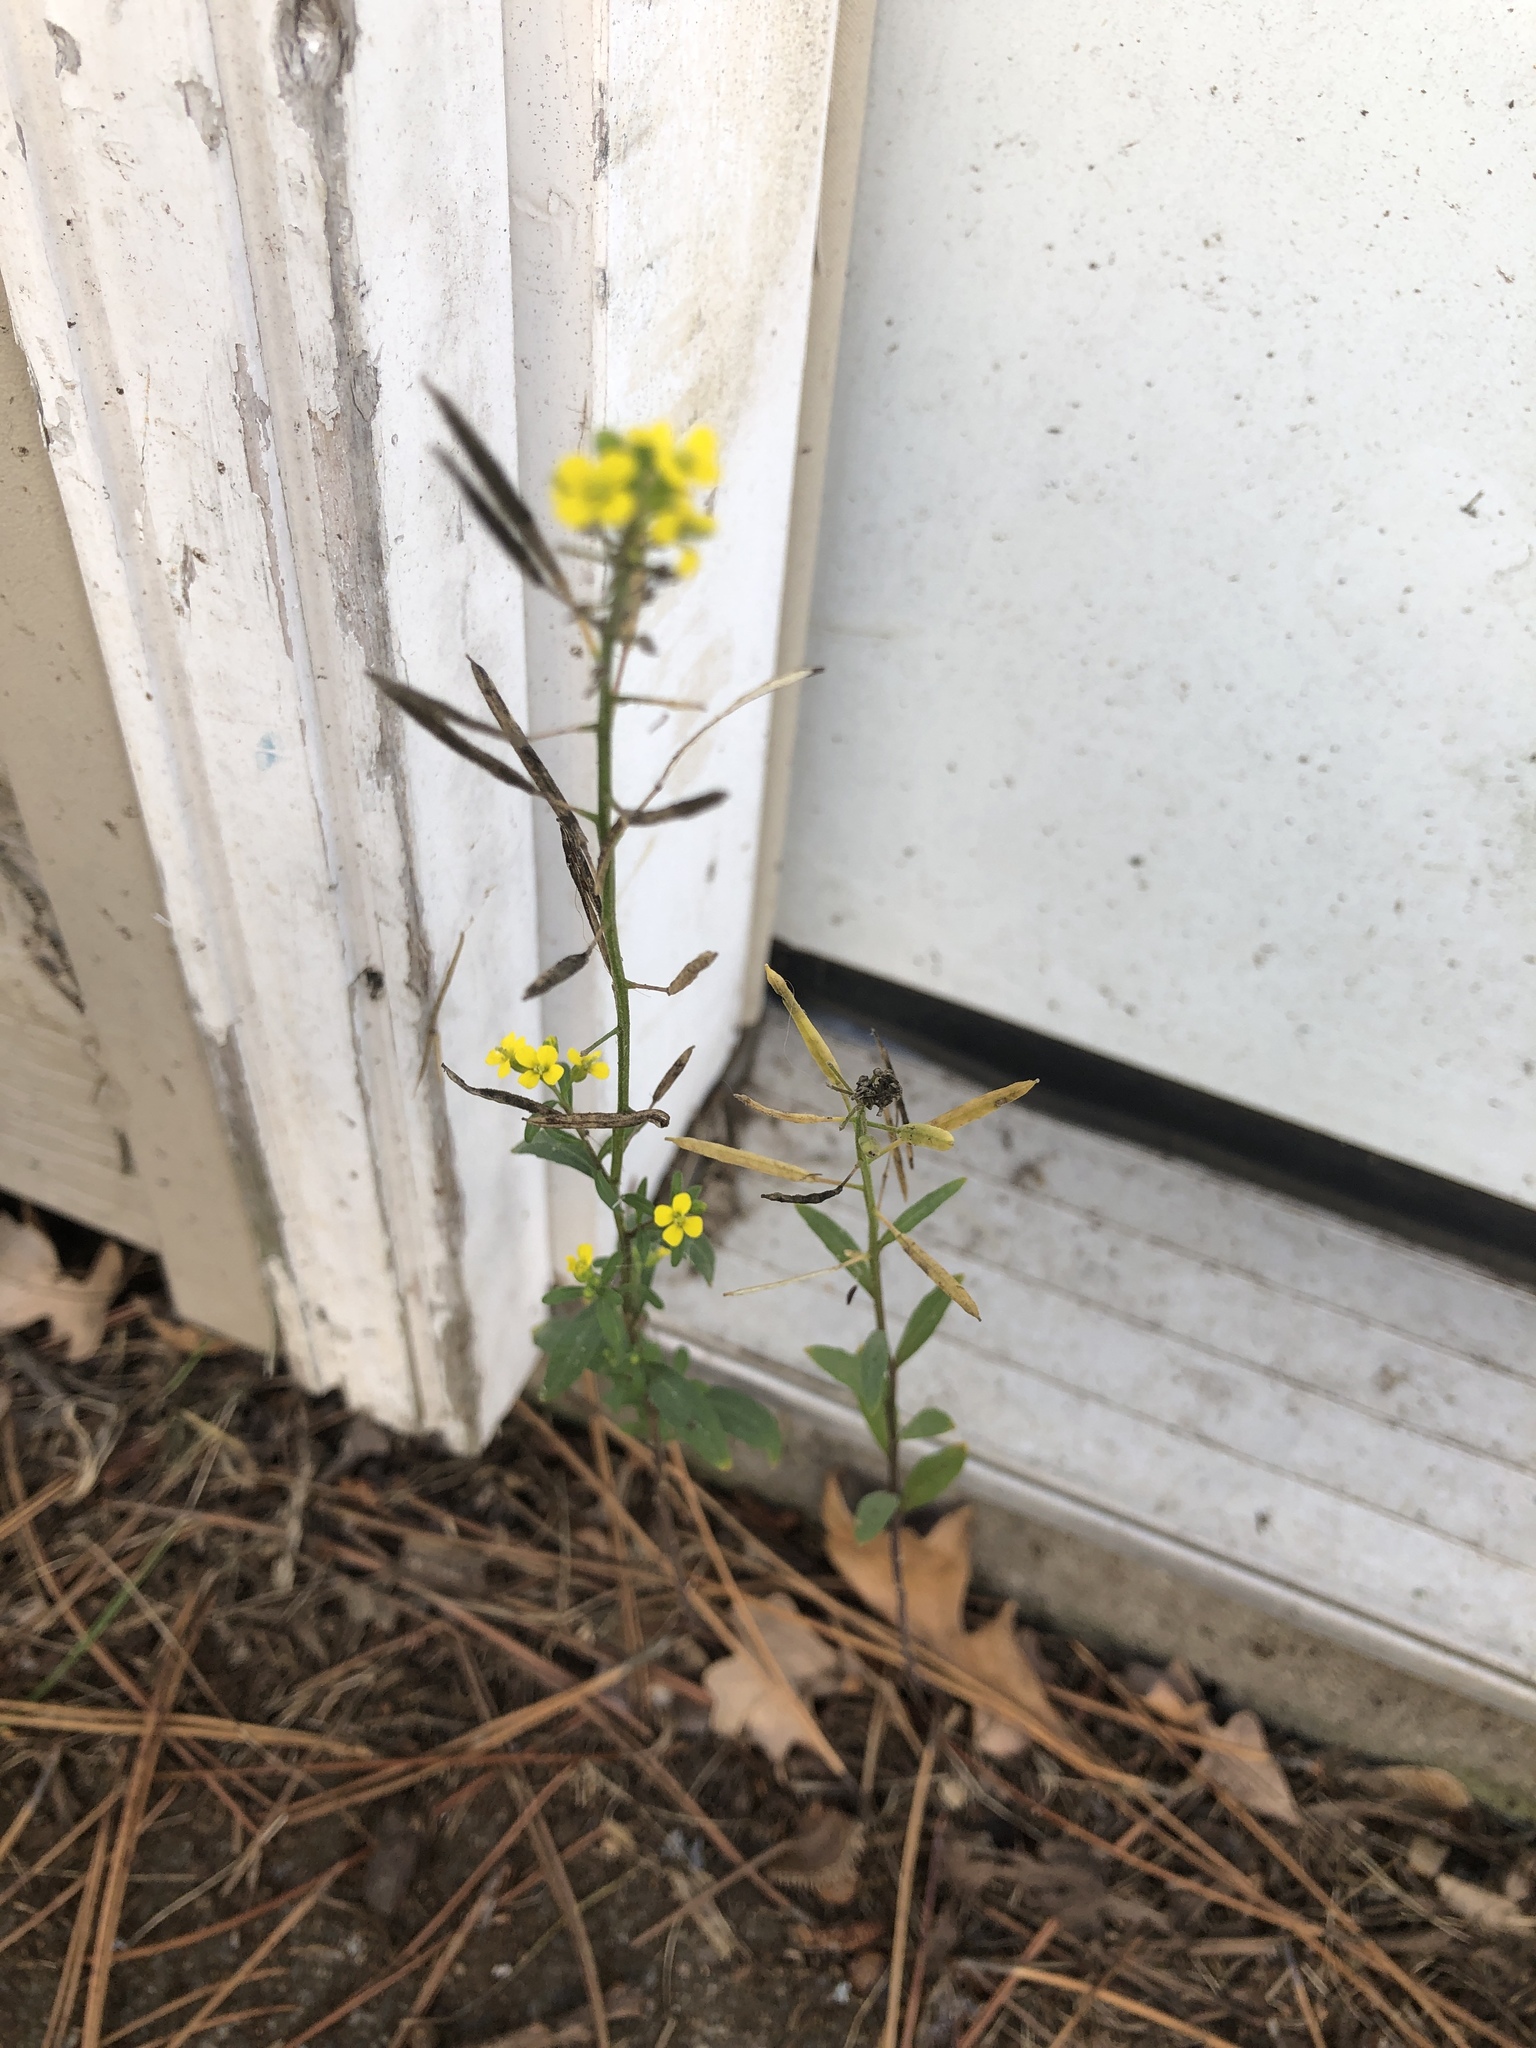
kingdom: Plantae
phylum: Tracheophyta
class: Magnoliopsida
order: Brassicales
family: Brassicaceae
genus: Erysimum
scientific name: Erysimum cheiranthoides
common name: Treacle mustard
